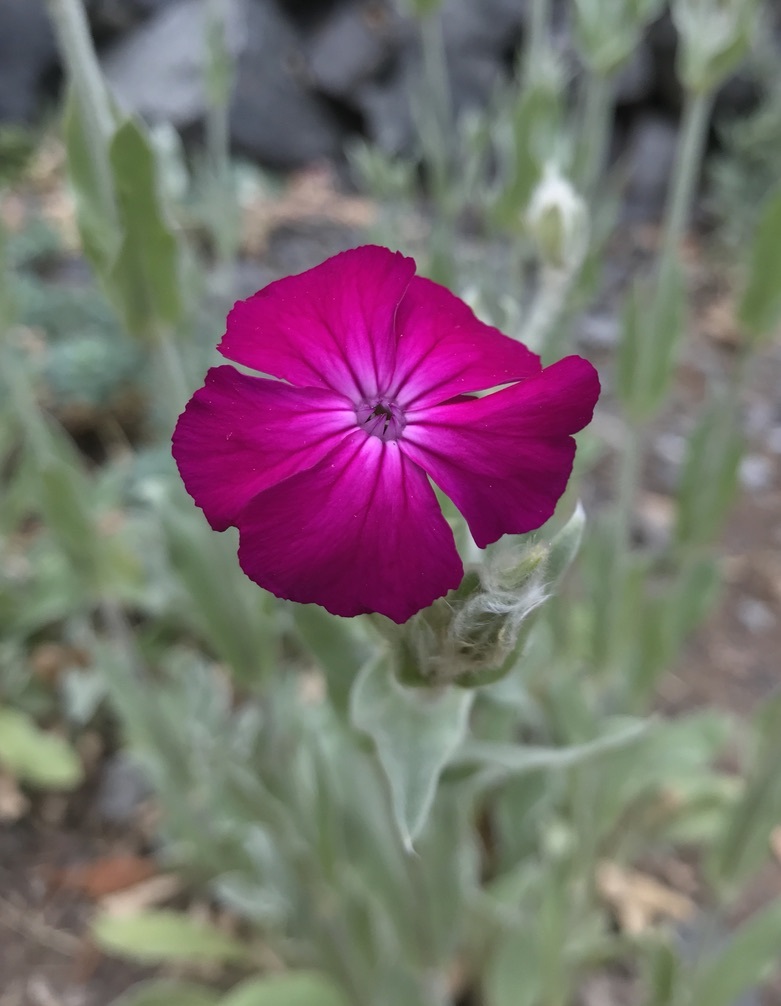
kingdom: Plantae
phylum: Tracheophyta
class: Magnoliopsida
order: Caryophyllales
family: Caryophyllaceae
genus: Silene
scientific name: Silene coronaria
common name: Rose campion
